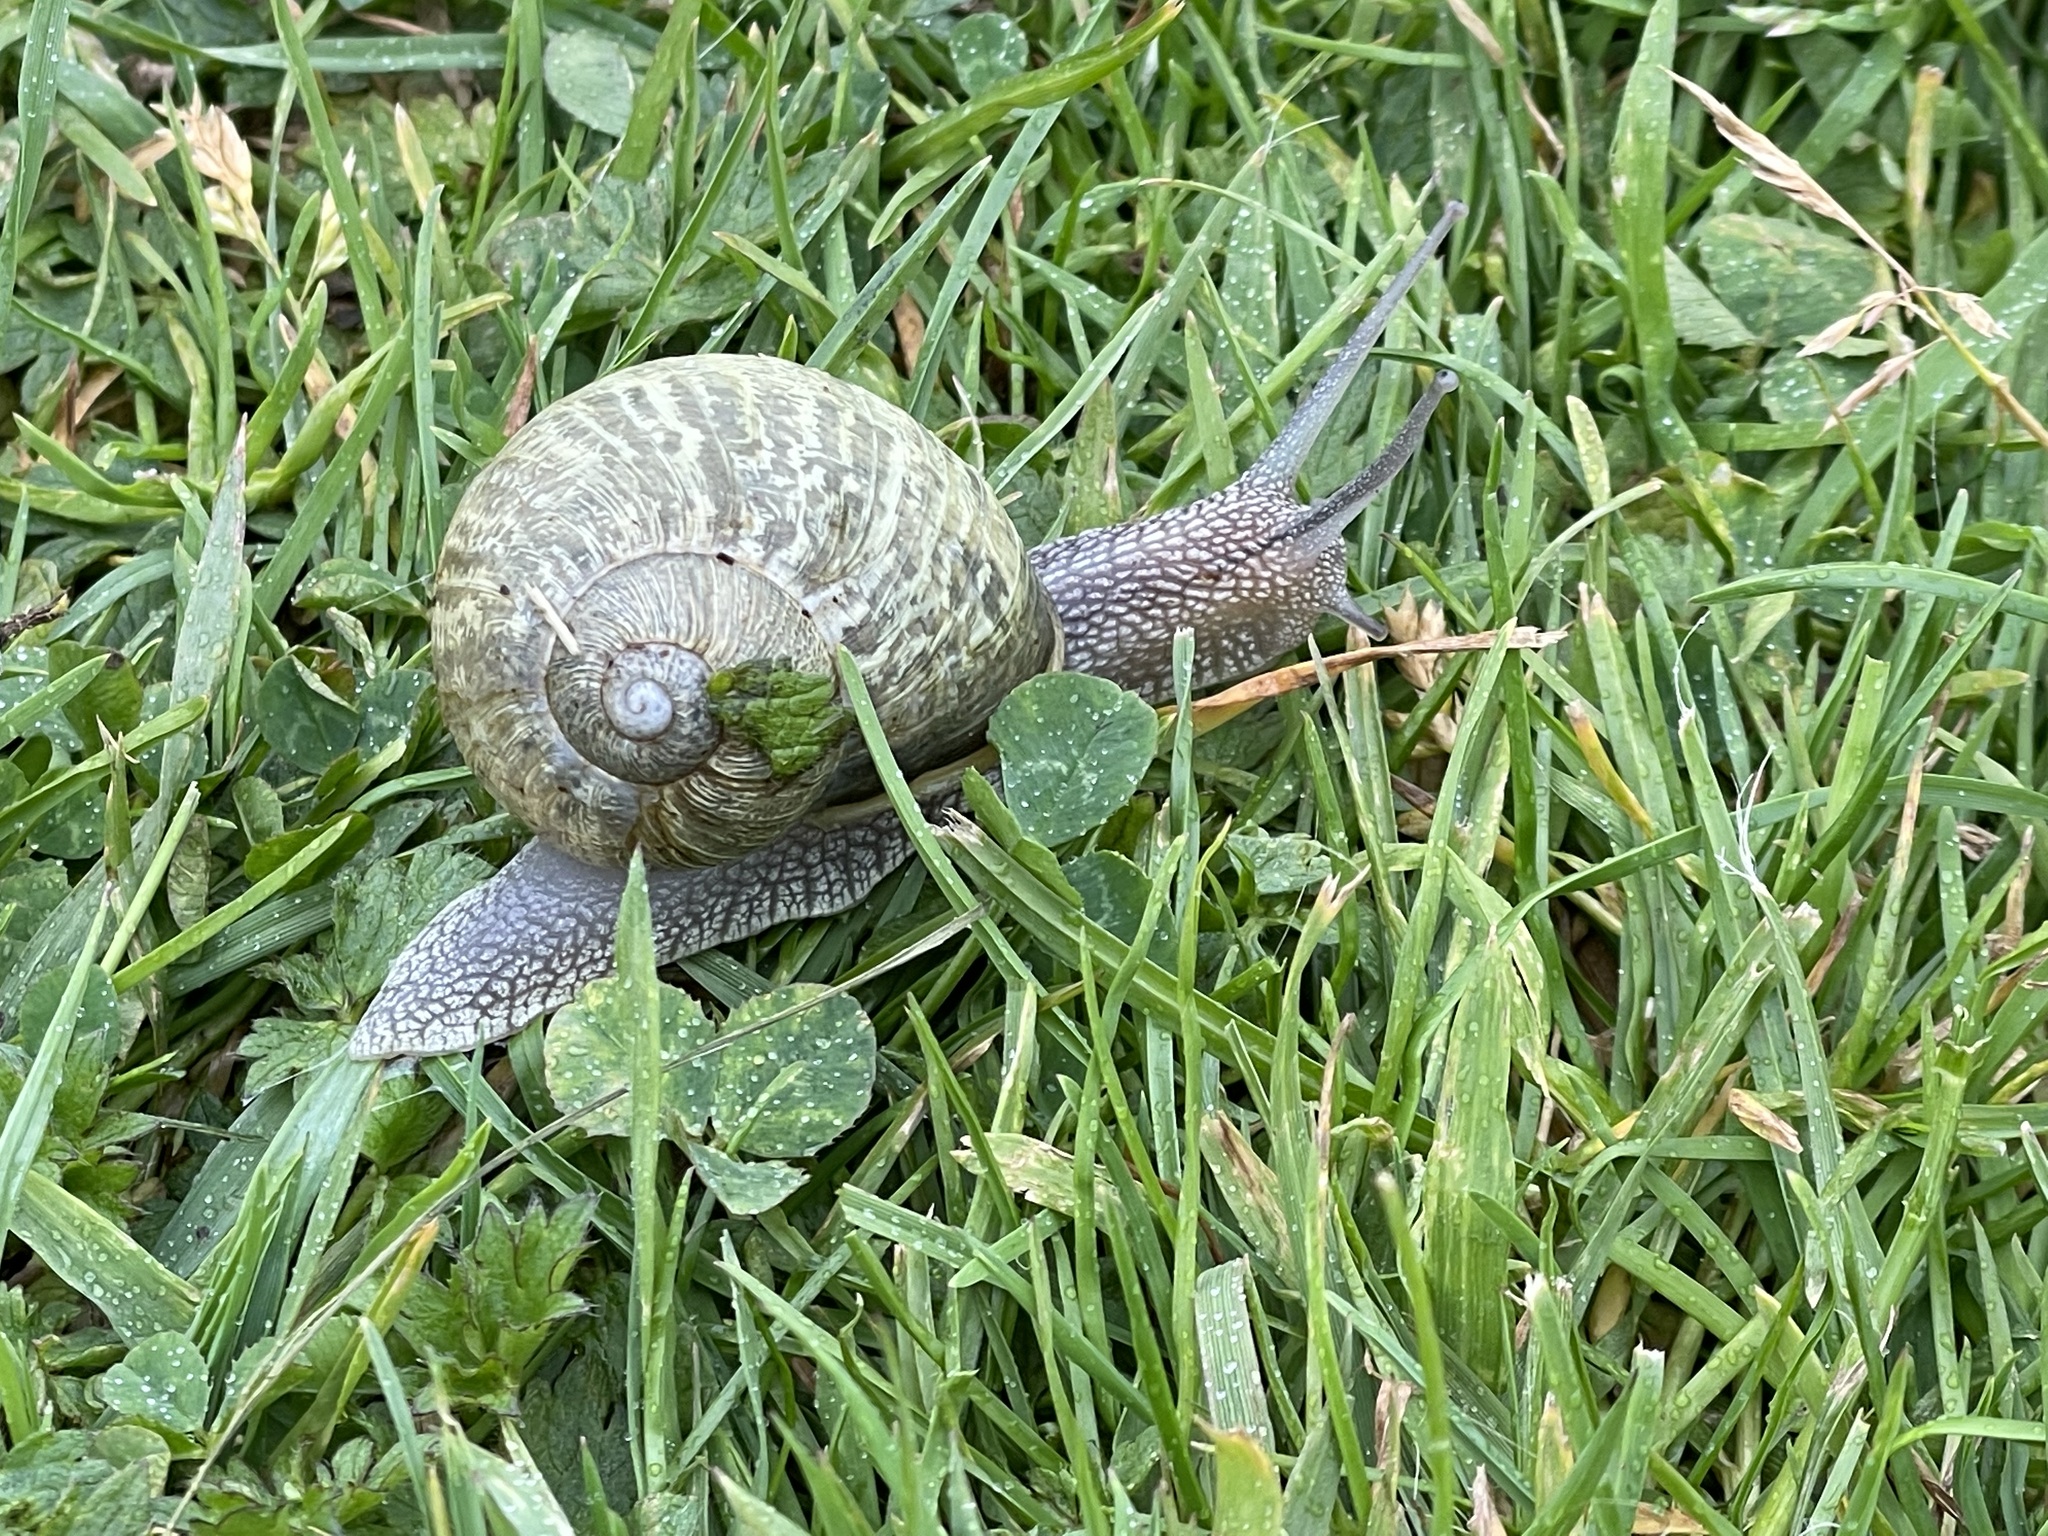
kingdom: Animalia
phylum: Mollusca
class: Gastropoda
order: Stylommatophora
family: Helicidae
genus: Cornu
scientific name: Cornu aspersum
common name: Brown garden snail
